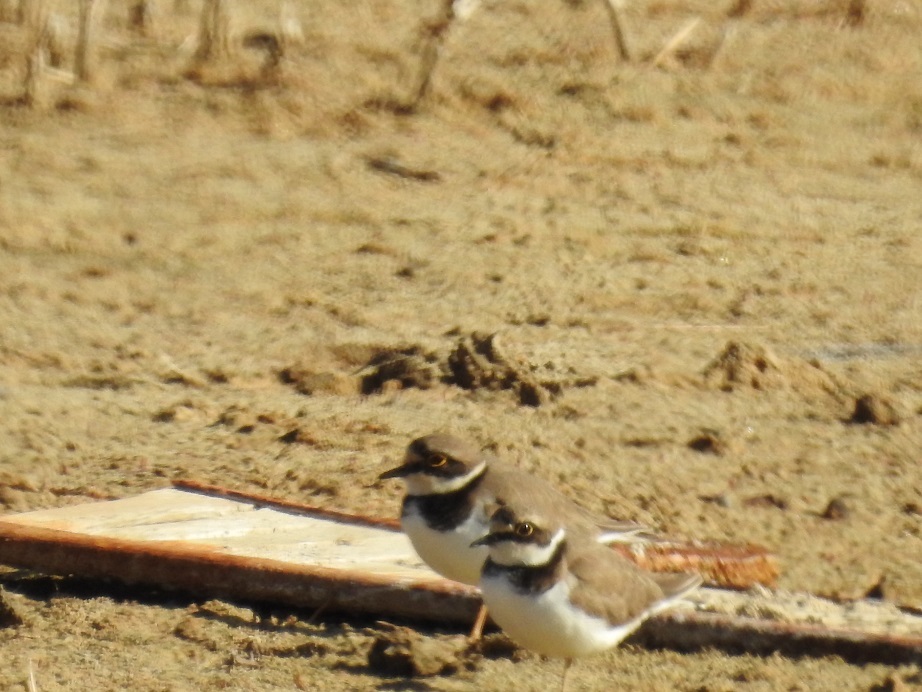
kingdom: Animalia
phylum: Chordata
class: Aves
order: Charadriiformes
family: Charadriidae
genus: Charadrius
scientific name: Charadrius dubius
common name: Little ringed plover
